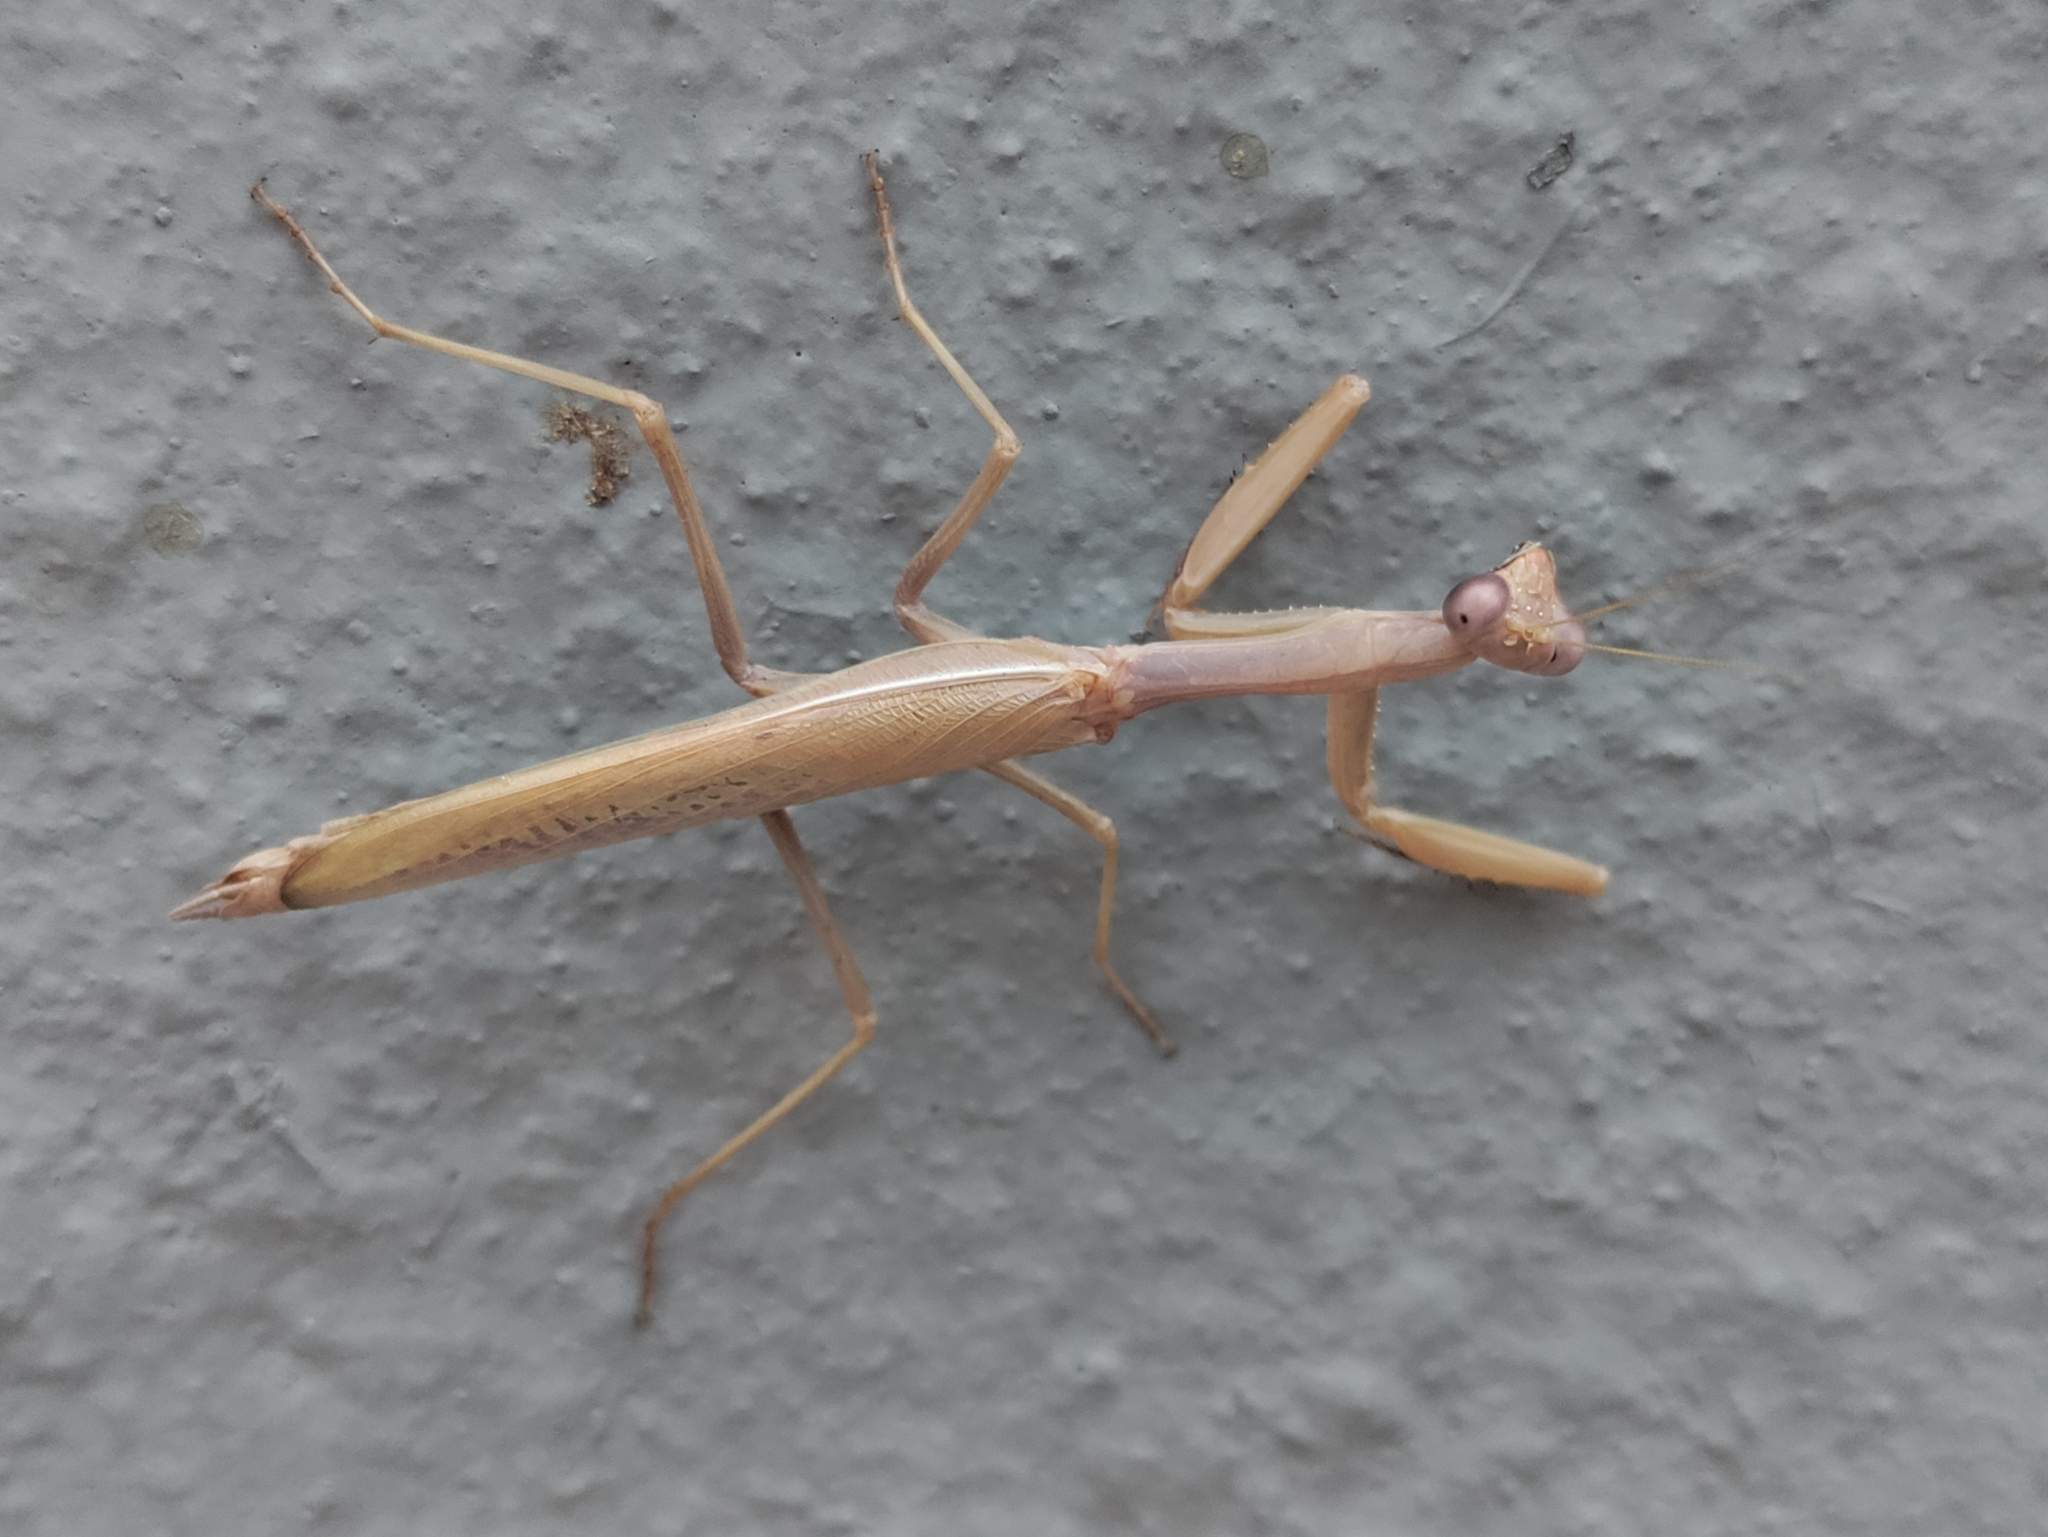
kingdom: Animalia
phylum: Arthropoda
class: Insecta
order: Mantodea
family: Eremiaphilidae
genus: Iris
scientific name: Iris oratoria
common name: Mediterranean mantis
